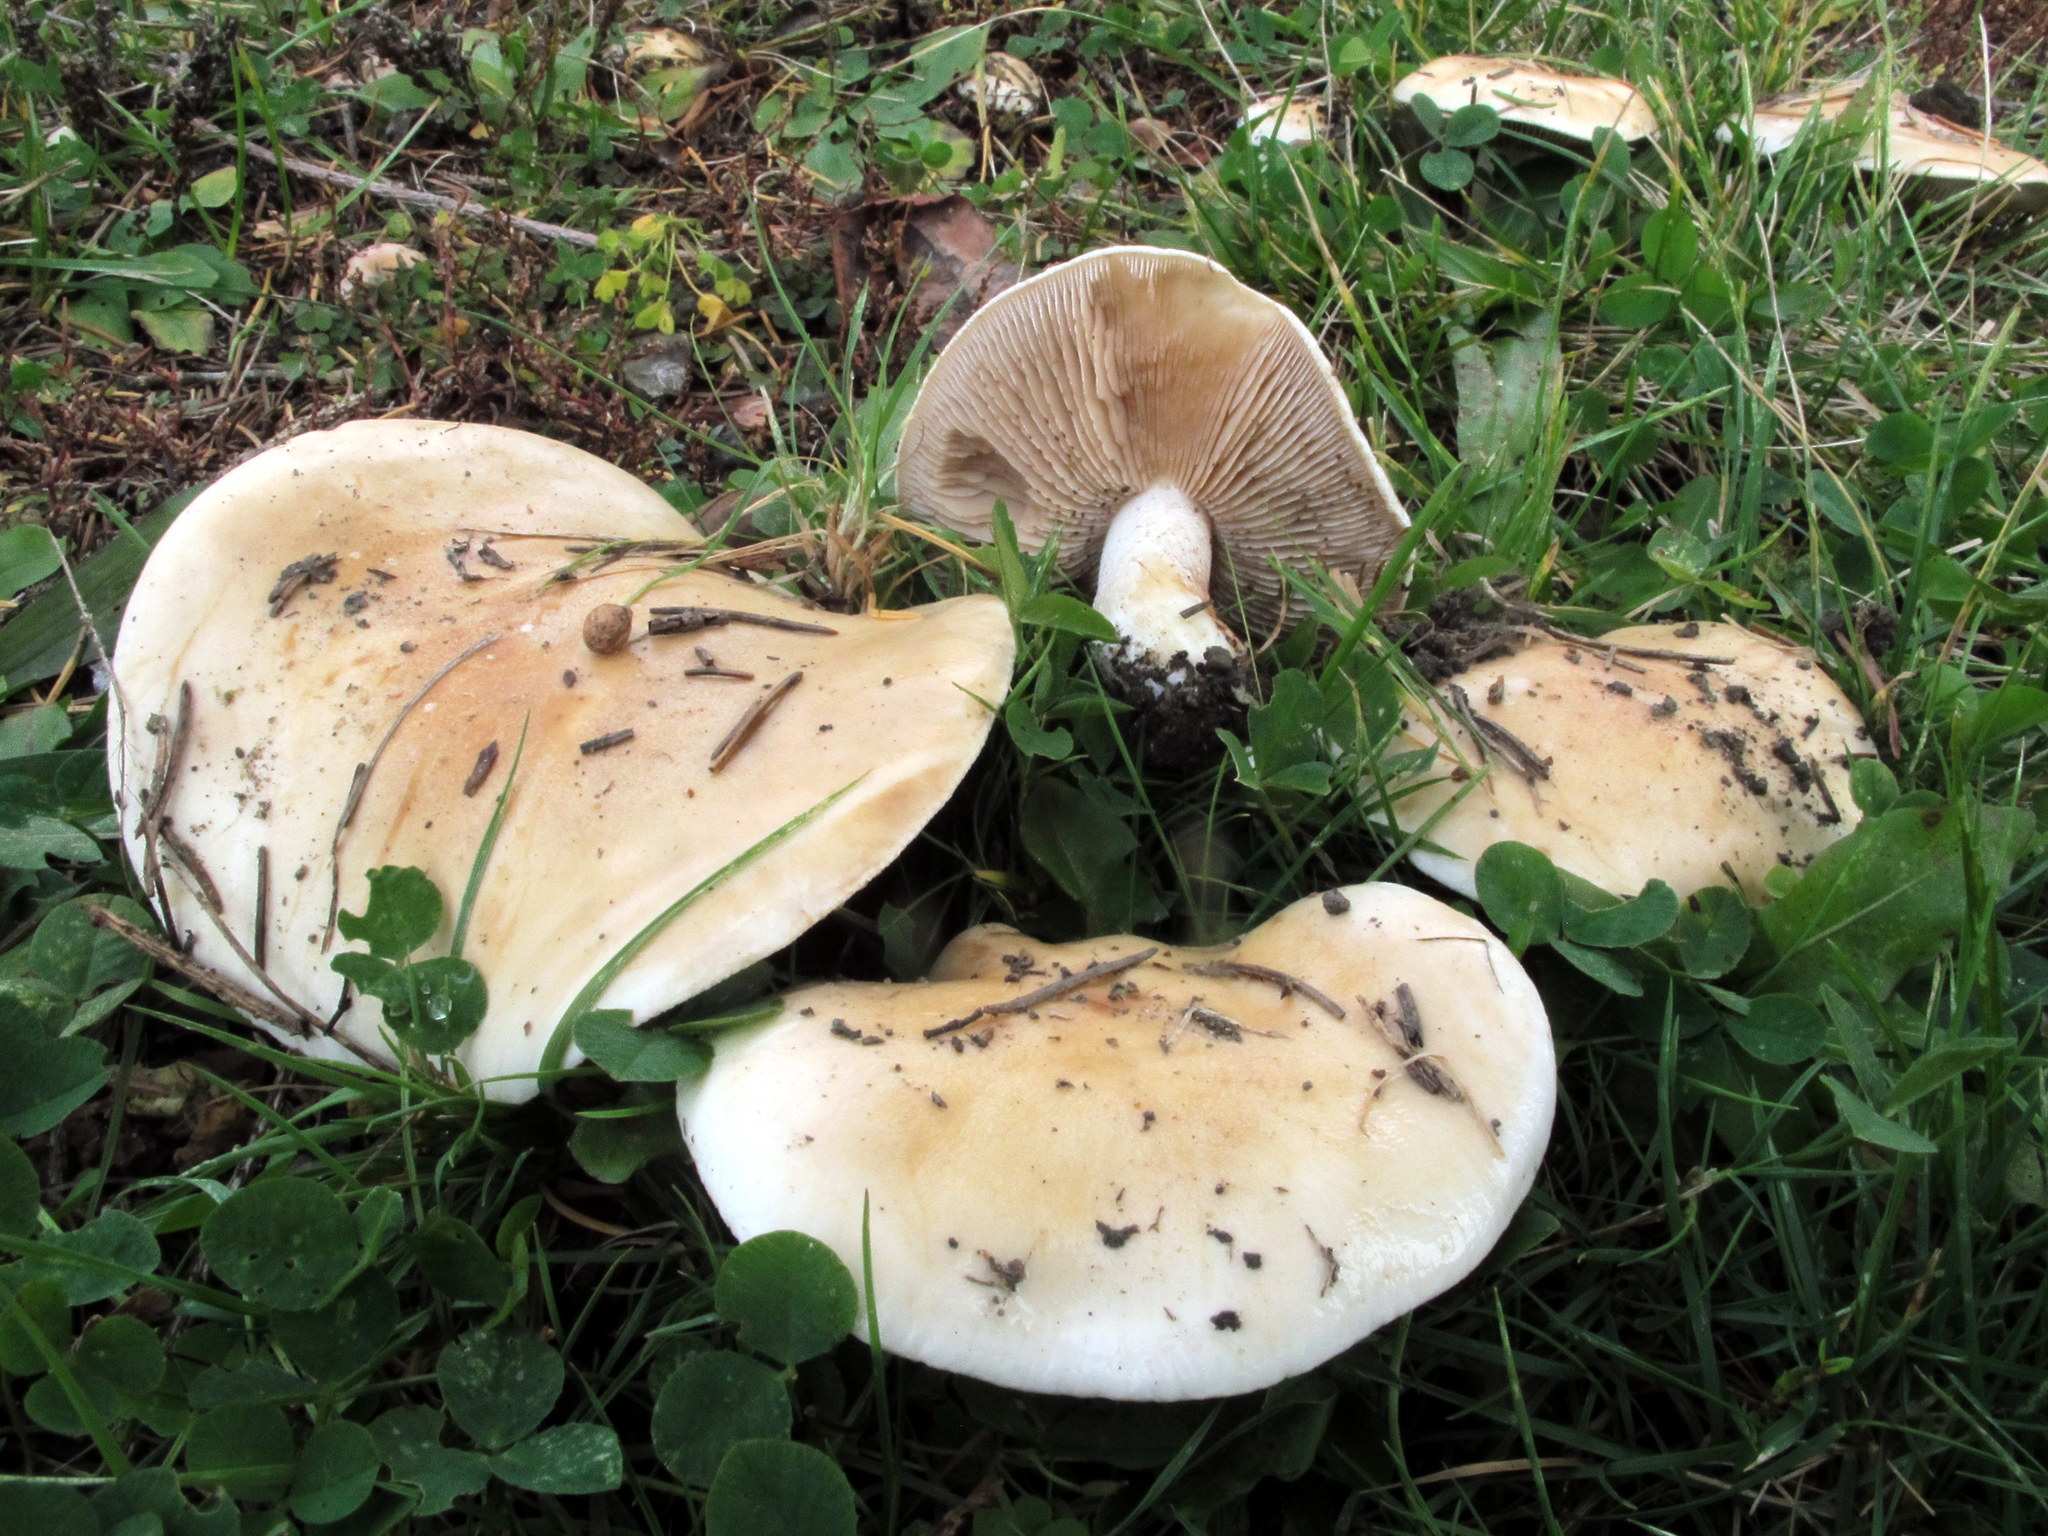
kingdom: Fungi
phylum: Basidiomycota
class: Agaricomycetes
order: Agaricales
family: Hymenogastraceae
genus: Hebeloma
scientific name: Hebeloma crustuliniforme
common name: Poison pie
